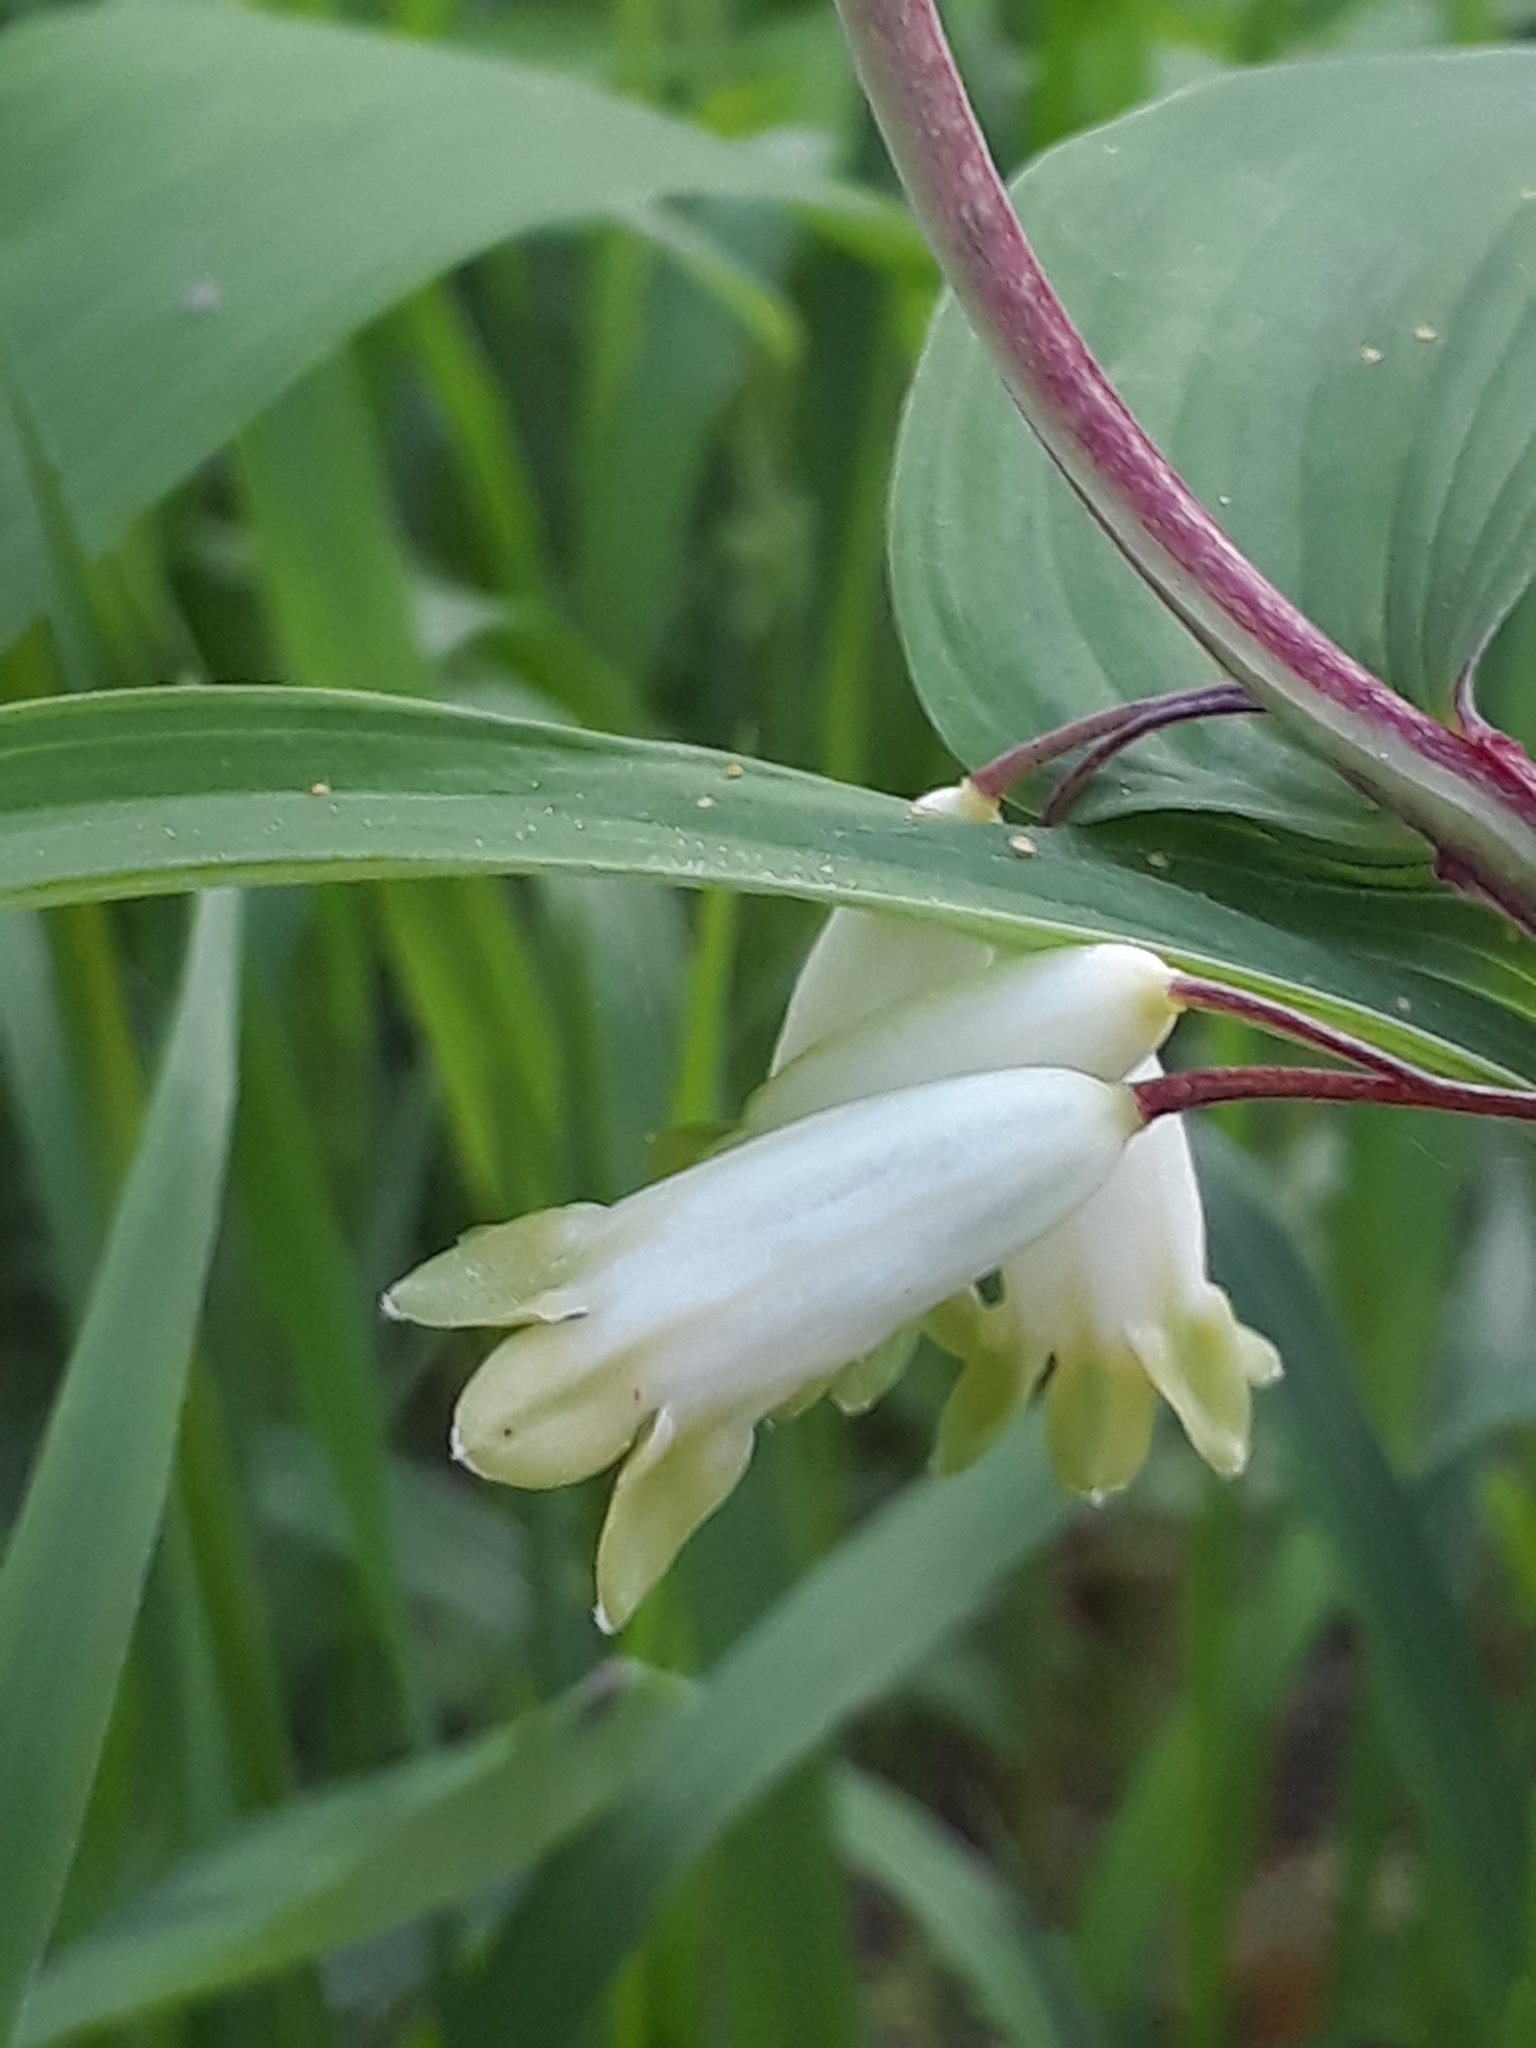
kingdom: Plantae
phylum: Tracheophyta
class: Liliopsida
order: Asparagales
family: Asparagaceae
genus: Polygonatum
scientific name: Polygonatum odoratum
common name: Angular solomon's-seal
